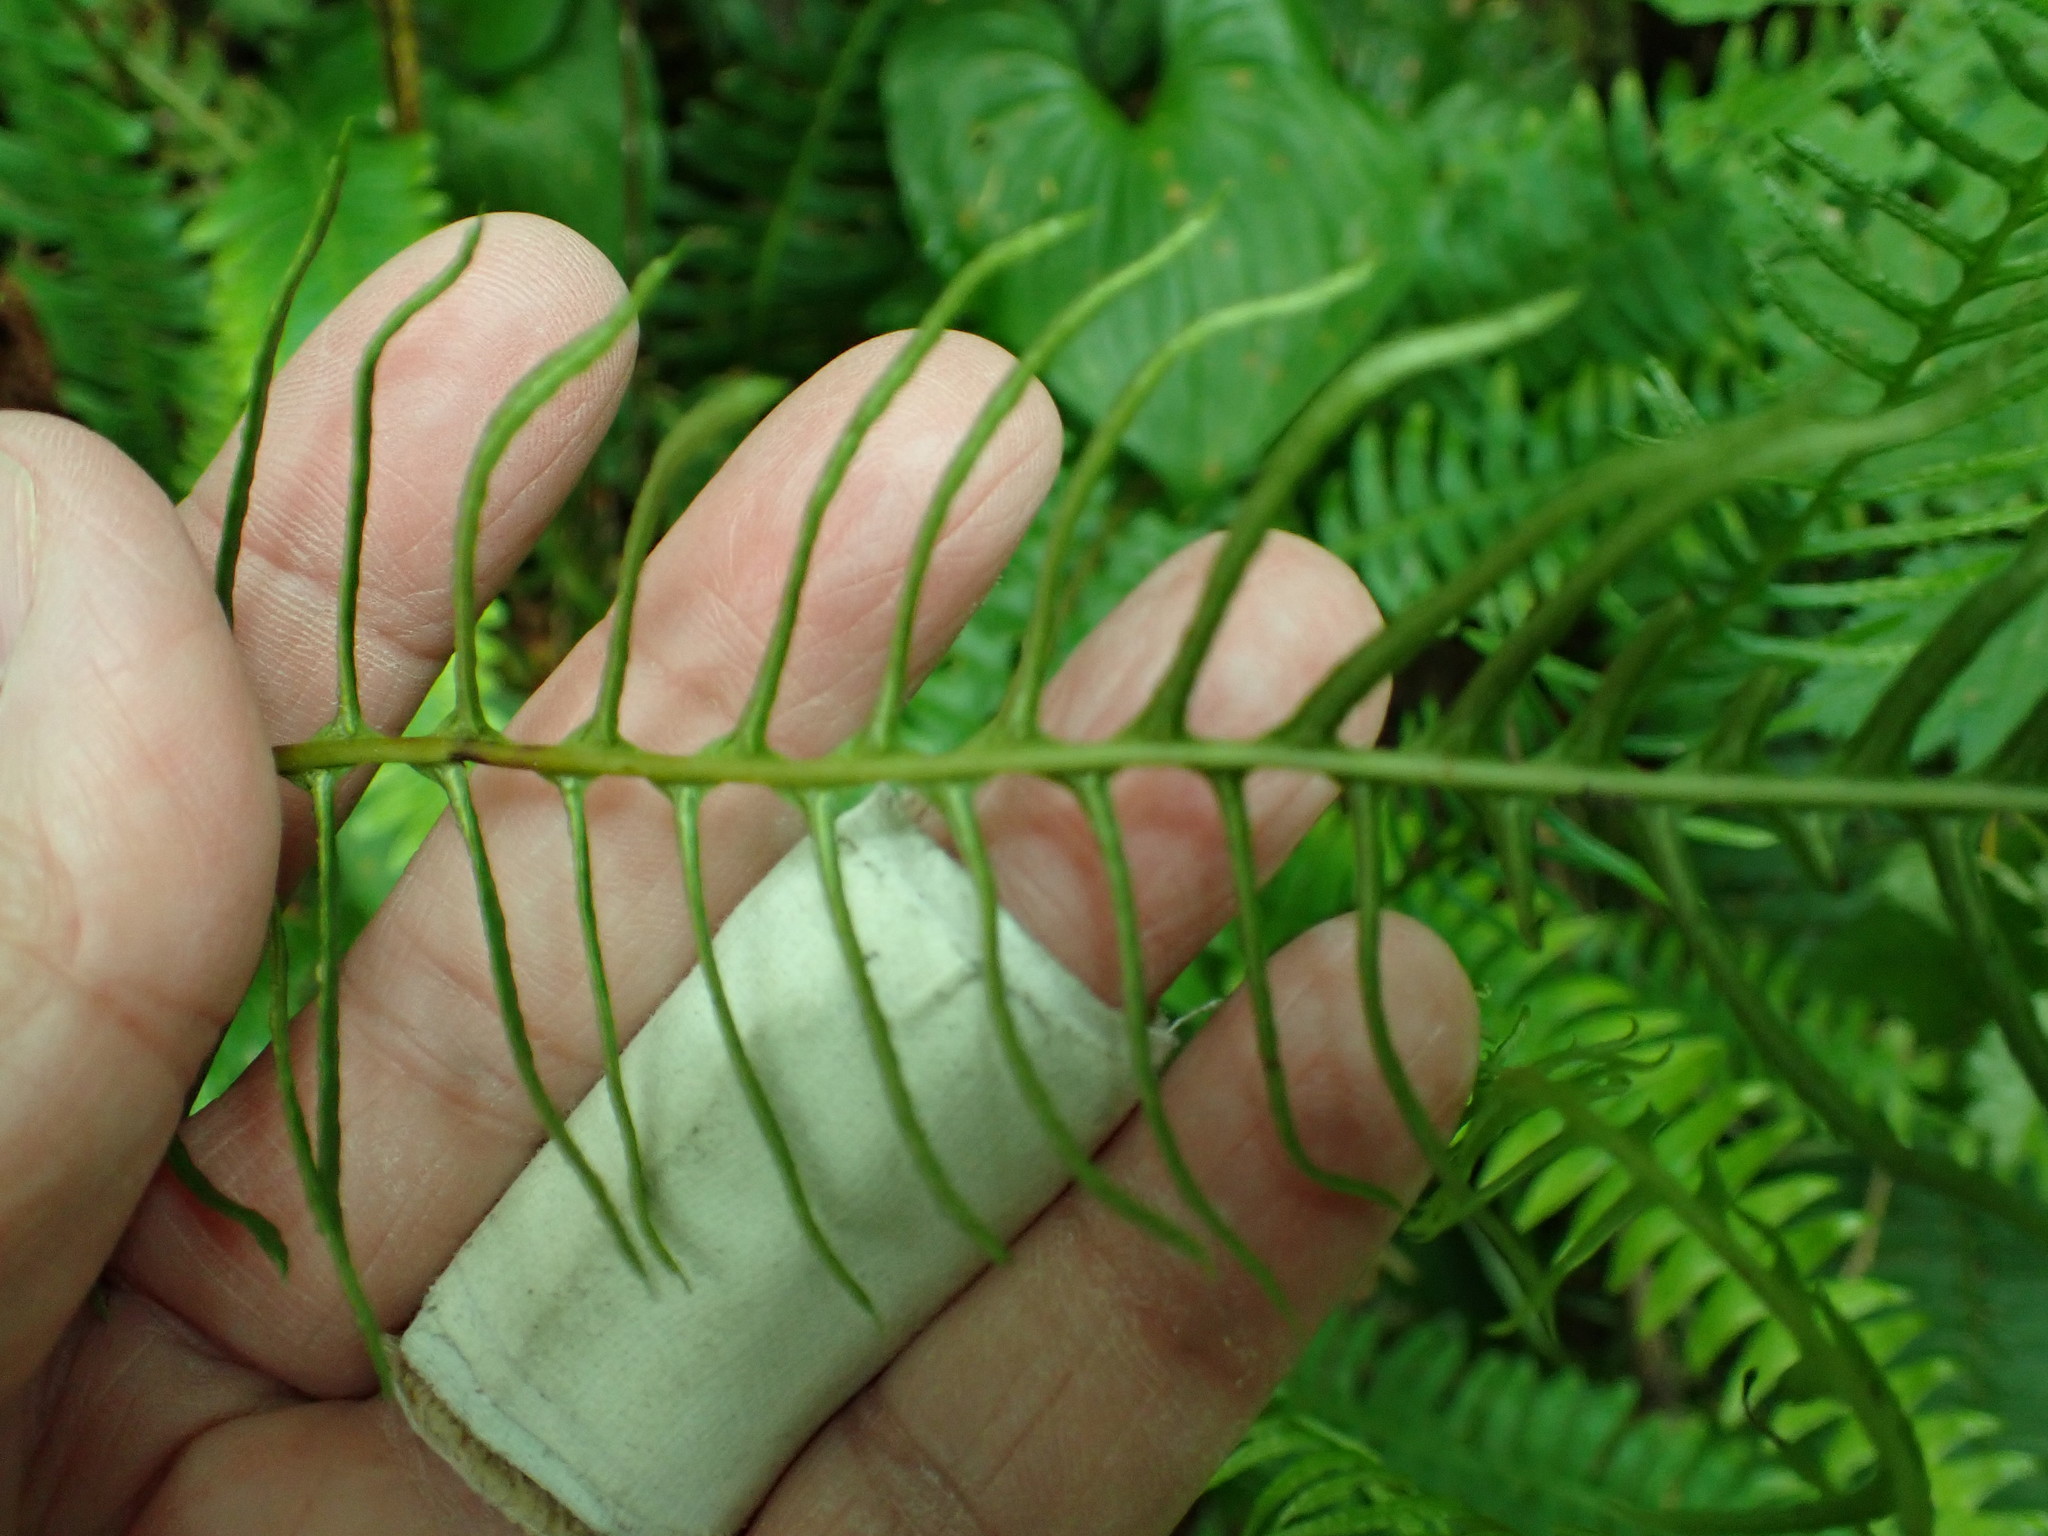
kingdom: Plantae
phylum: Tracheophyta
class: Polypodiopsida
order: Polypodiales
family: Blechnaceae
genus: Struthiopteris
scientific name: Struthiopteris spicant
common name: Deer fern
